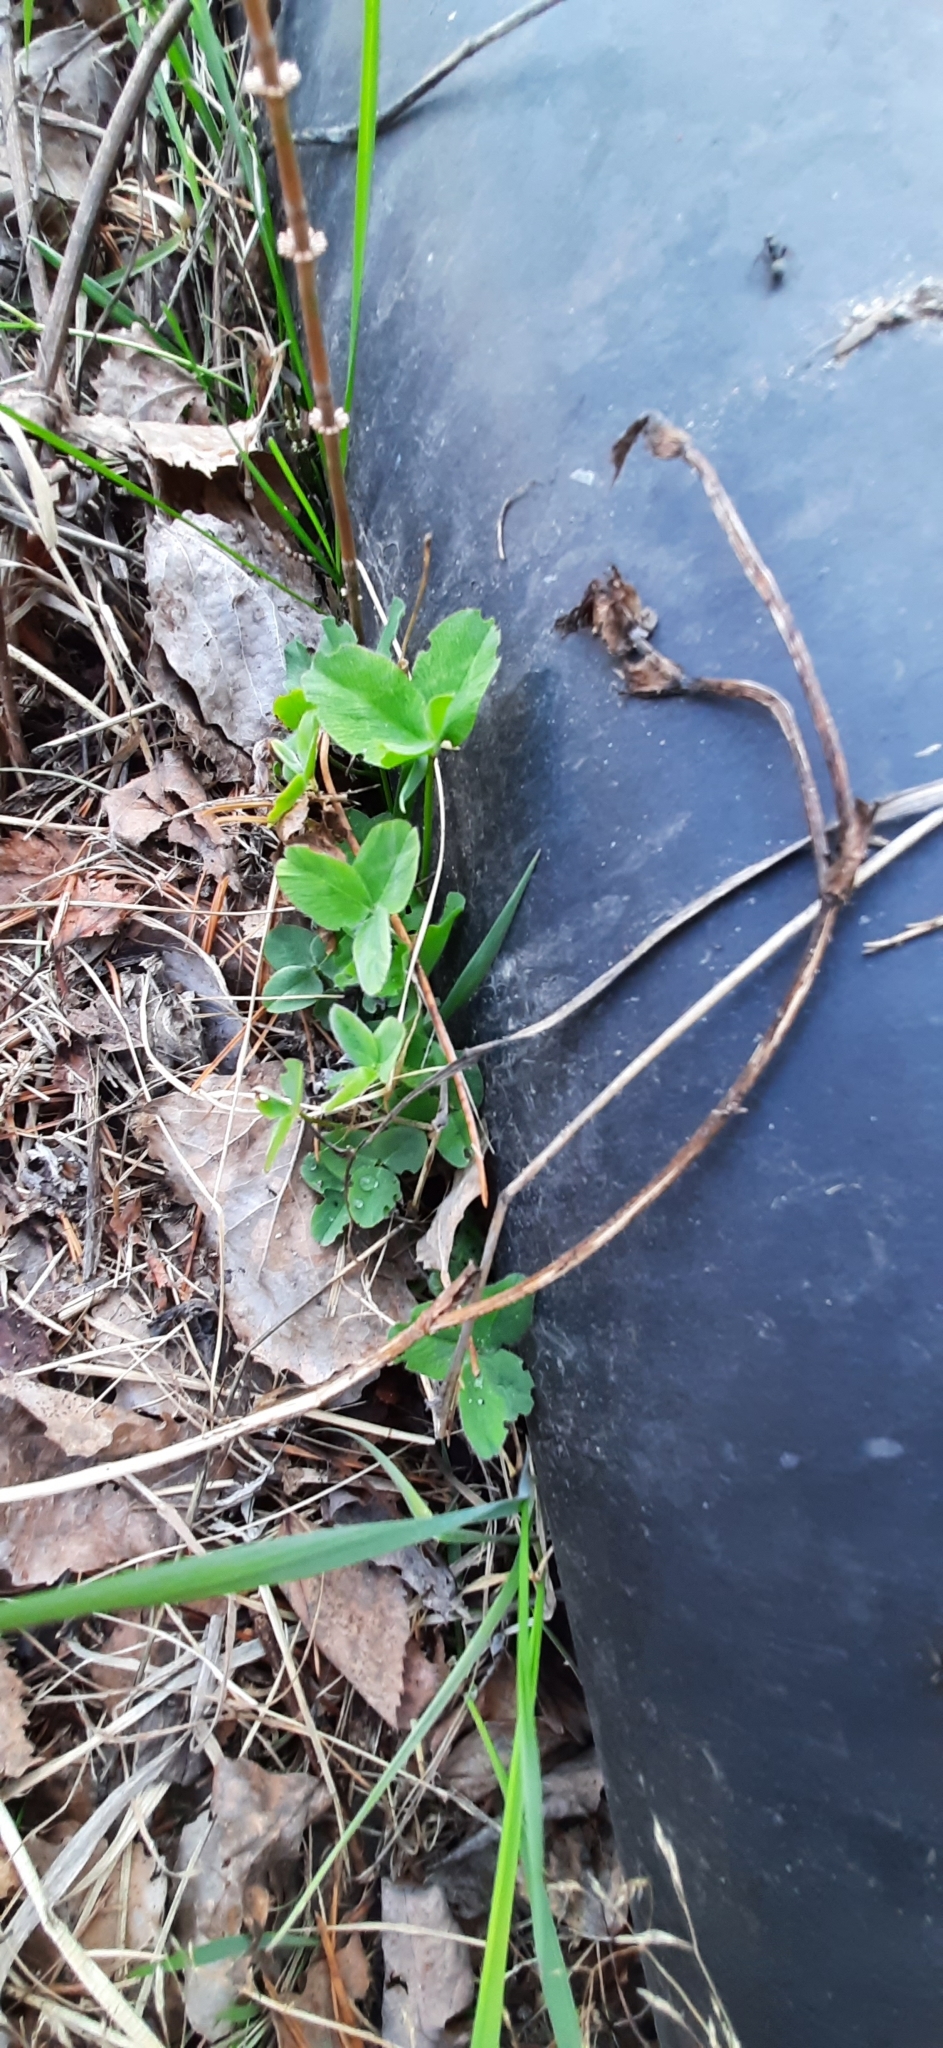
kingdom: Plantae
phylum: Tracheophyta
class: Magnoliopsida
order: Fabales
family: Fabaceae
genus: Trifolium
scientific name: Trifolium pratense
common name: Red clover
